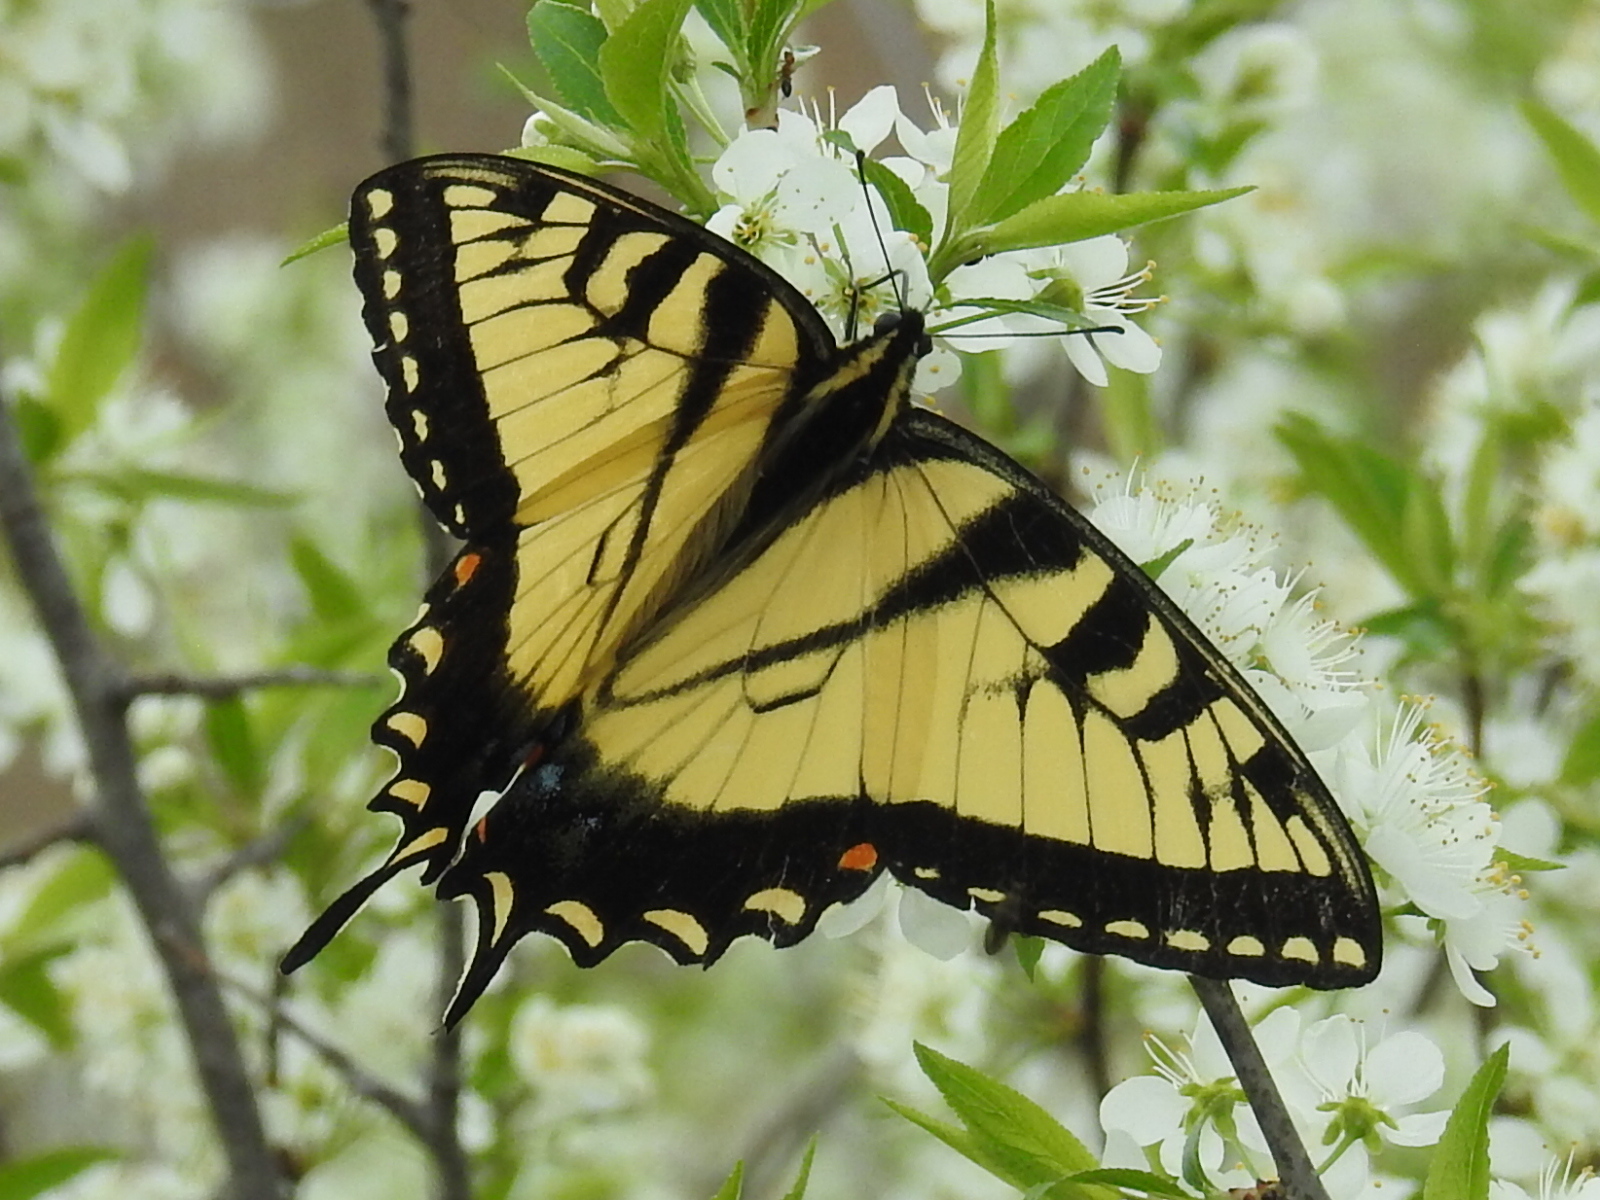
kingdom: Animalia
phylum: Arthropoda
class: Insecta
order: Lepidoptera
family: Papilionidae
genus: Papilio
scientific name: Papilio glaucus
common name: Tiger swallowtail
